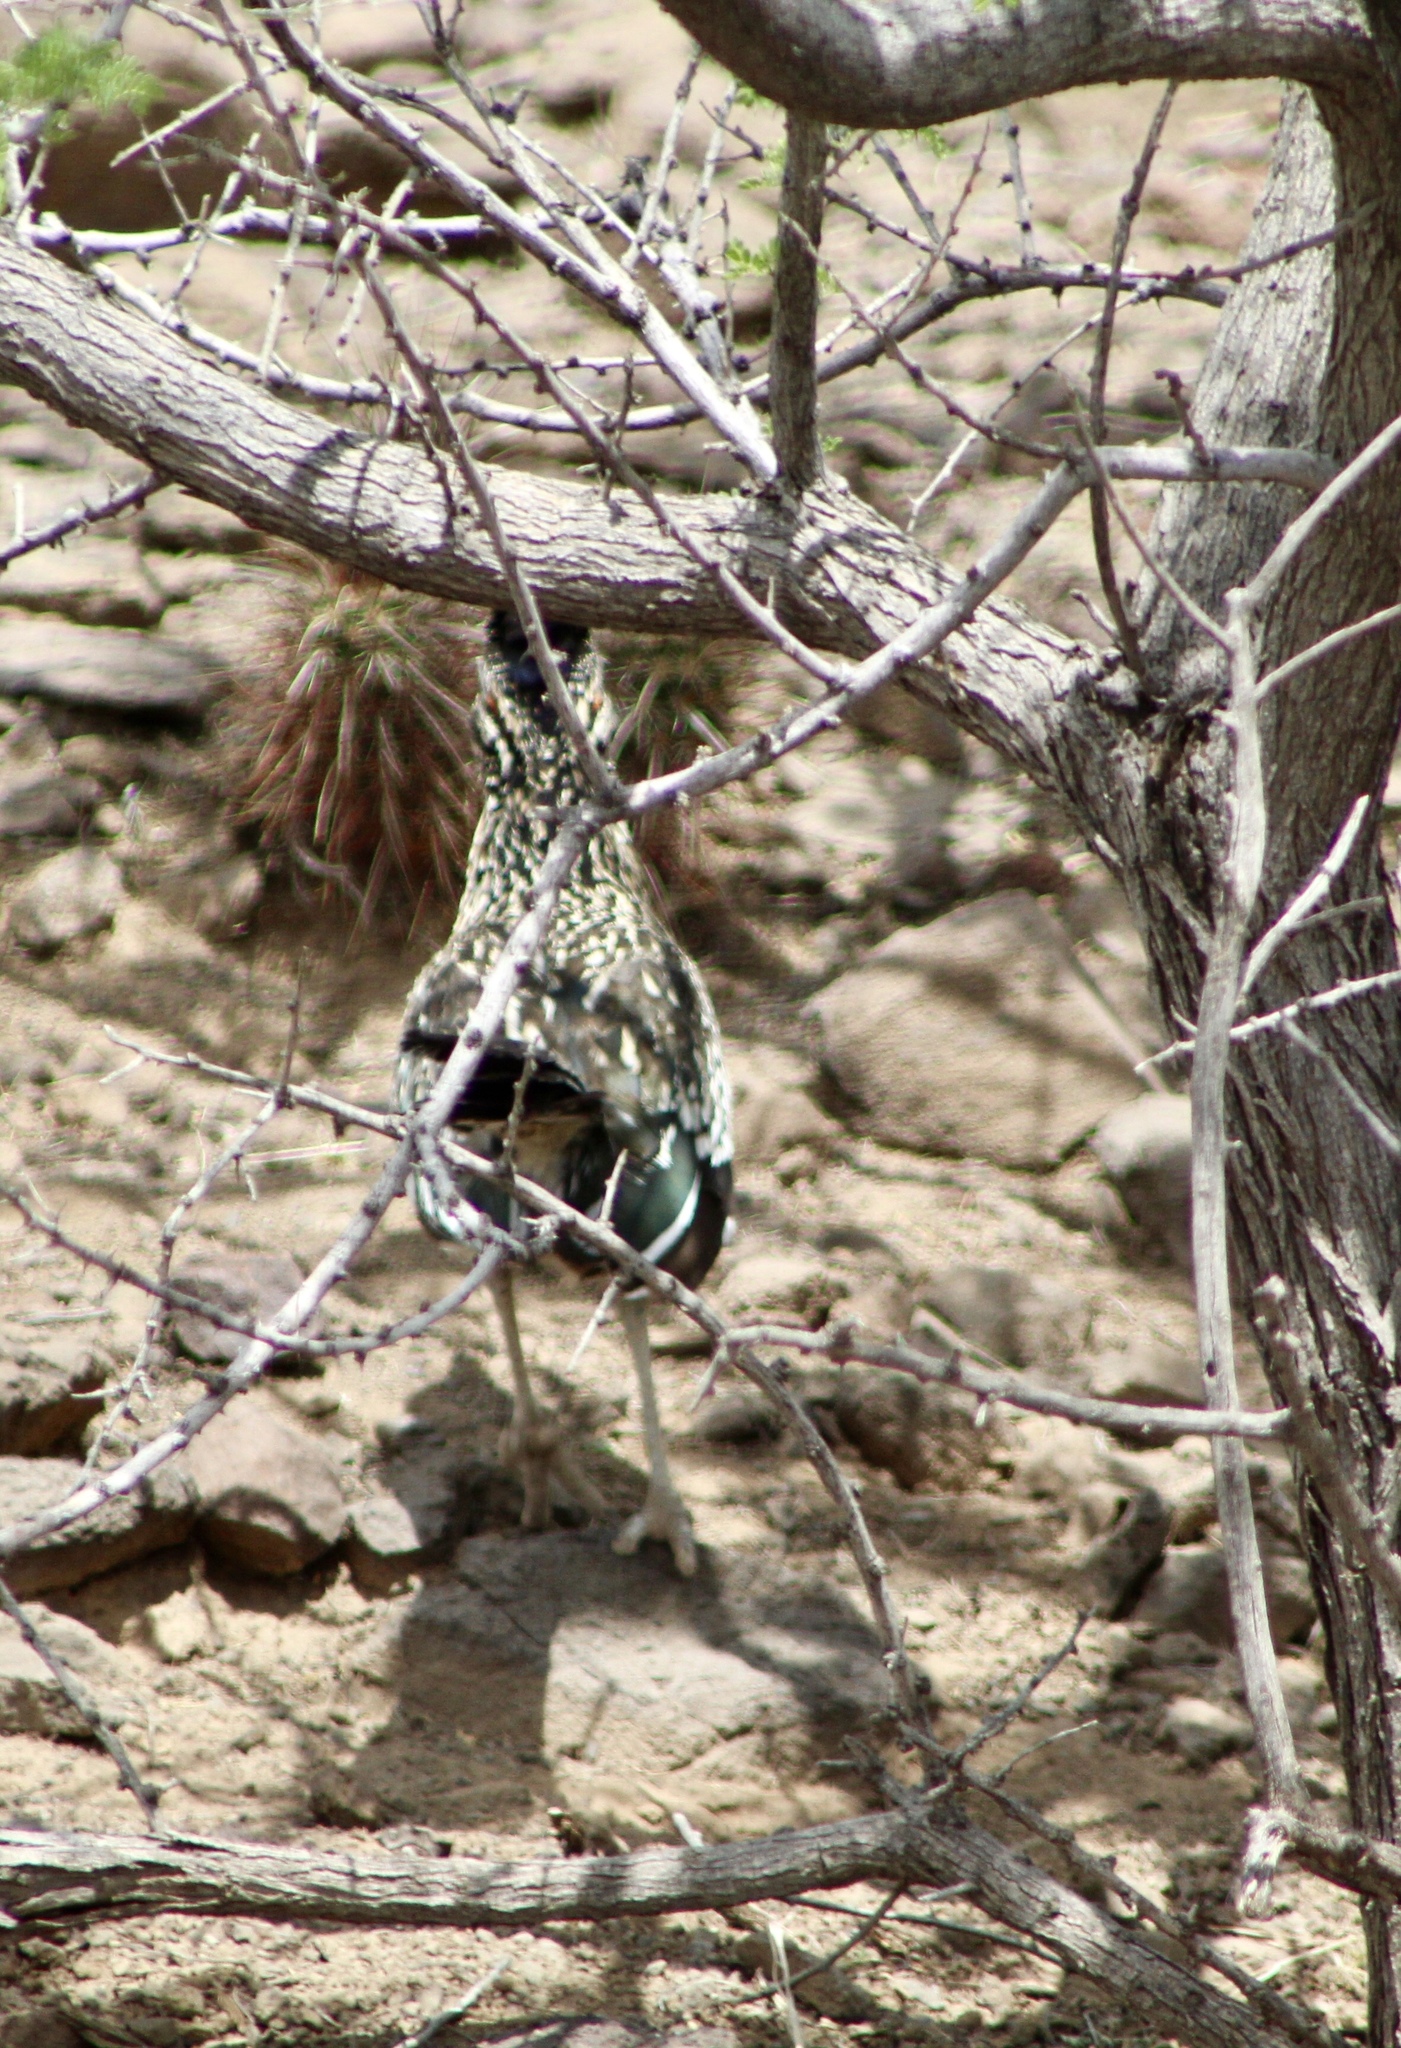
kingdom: Animalia
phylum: Chordata
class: Aves
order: Cuculiformes
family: Cuculidae
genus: Geococcyx
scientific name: Geococcyx californianus
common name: Greater roadrunner
